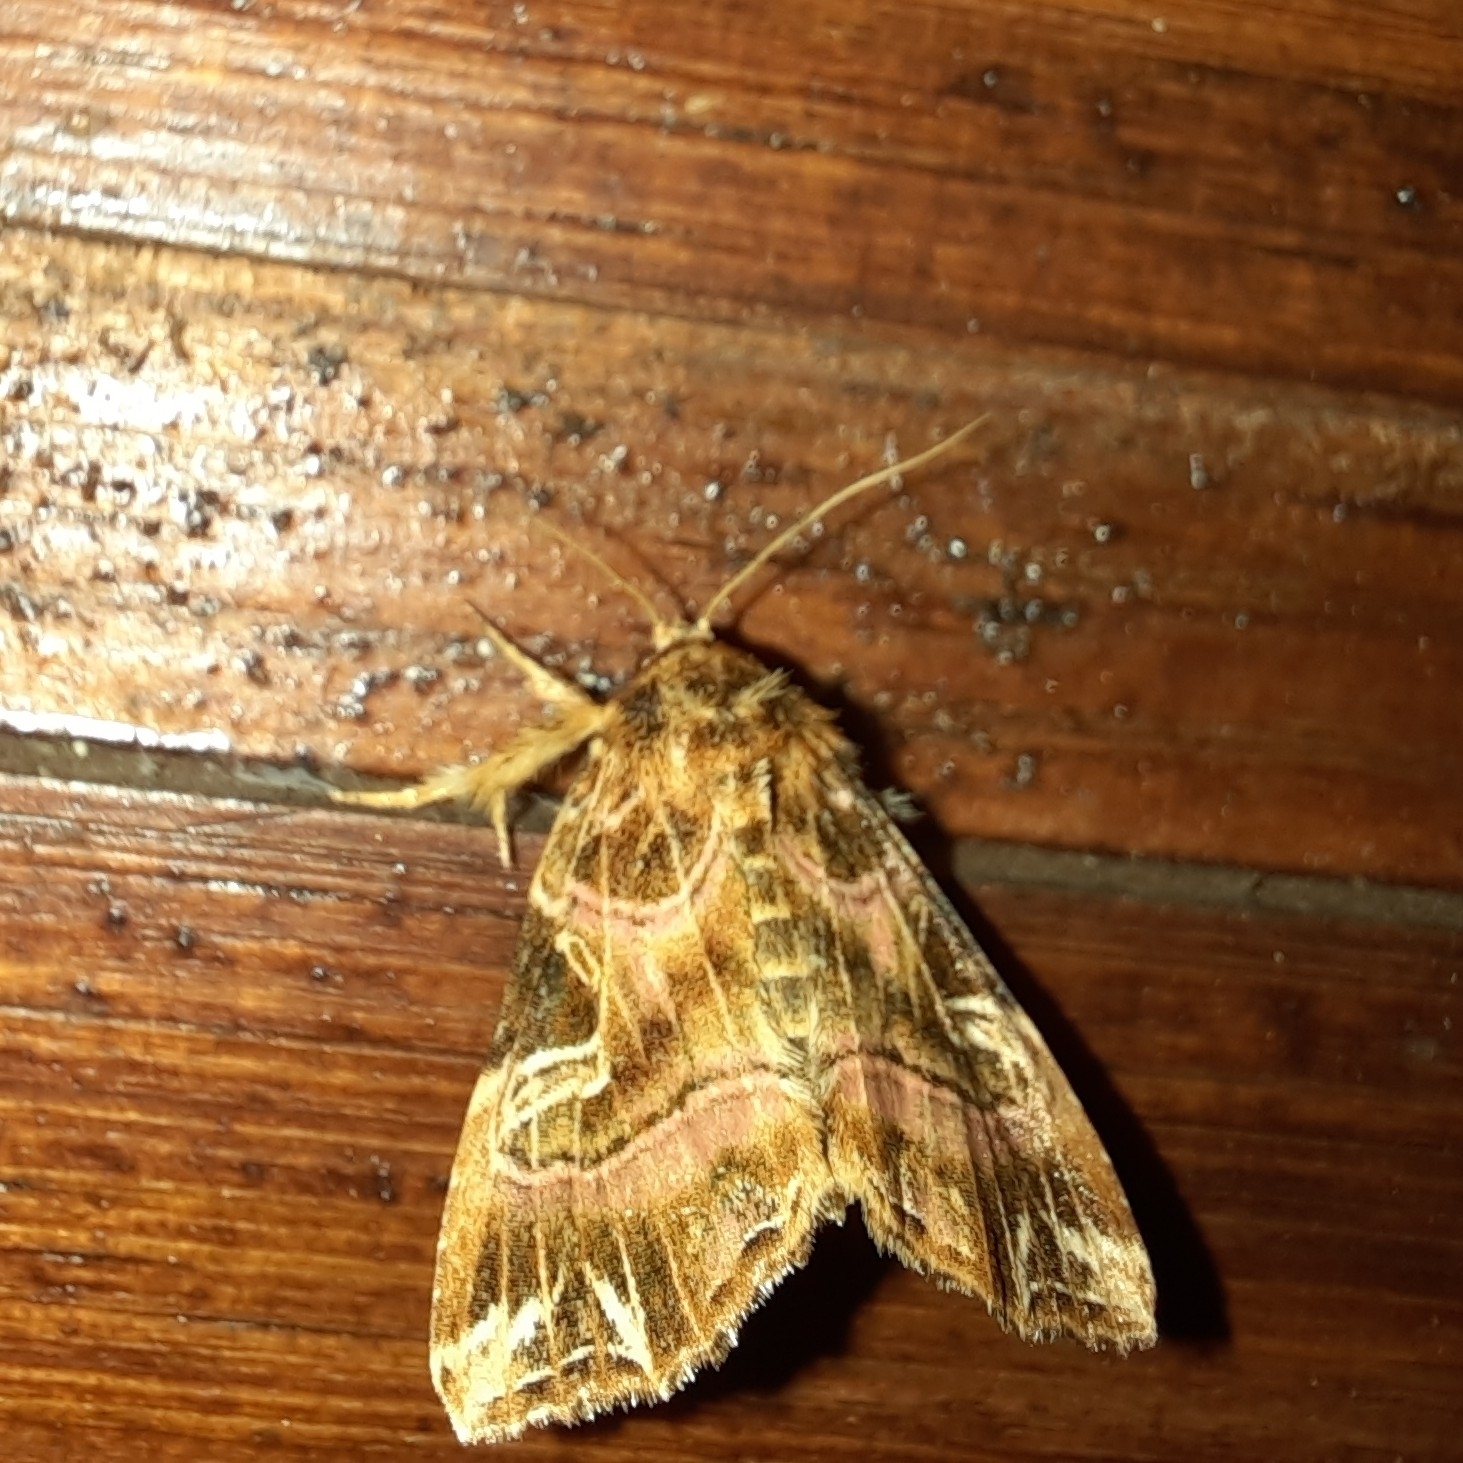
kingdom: Animalia
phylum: Arthropoda
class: Insecta
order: Lepidoptera
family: Noctuidae
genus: Callopistria
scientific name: Callopistria juventina
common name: Latin
